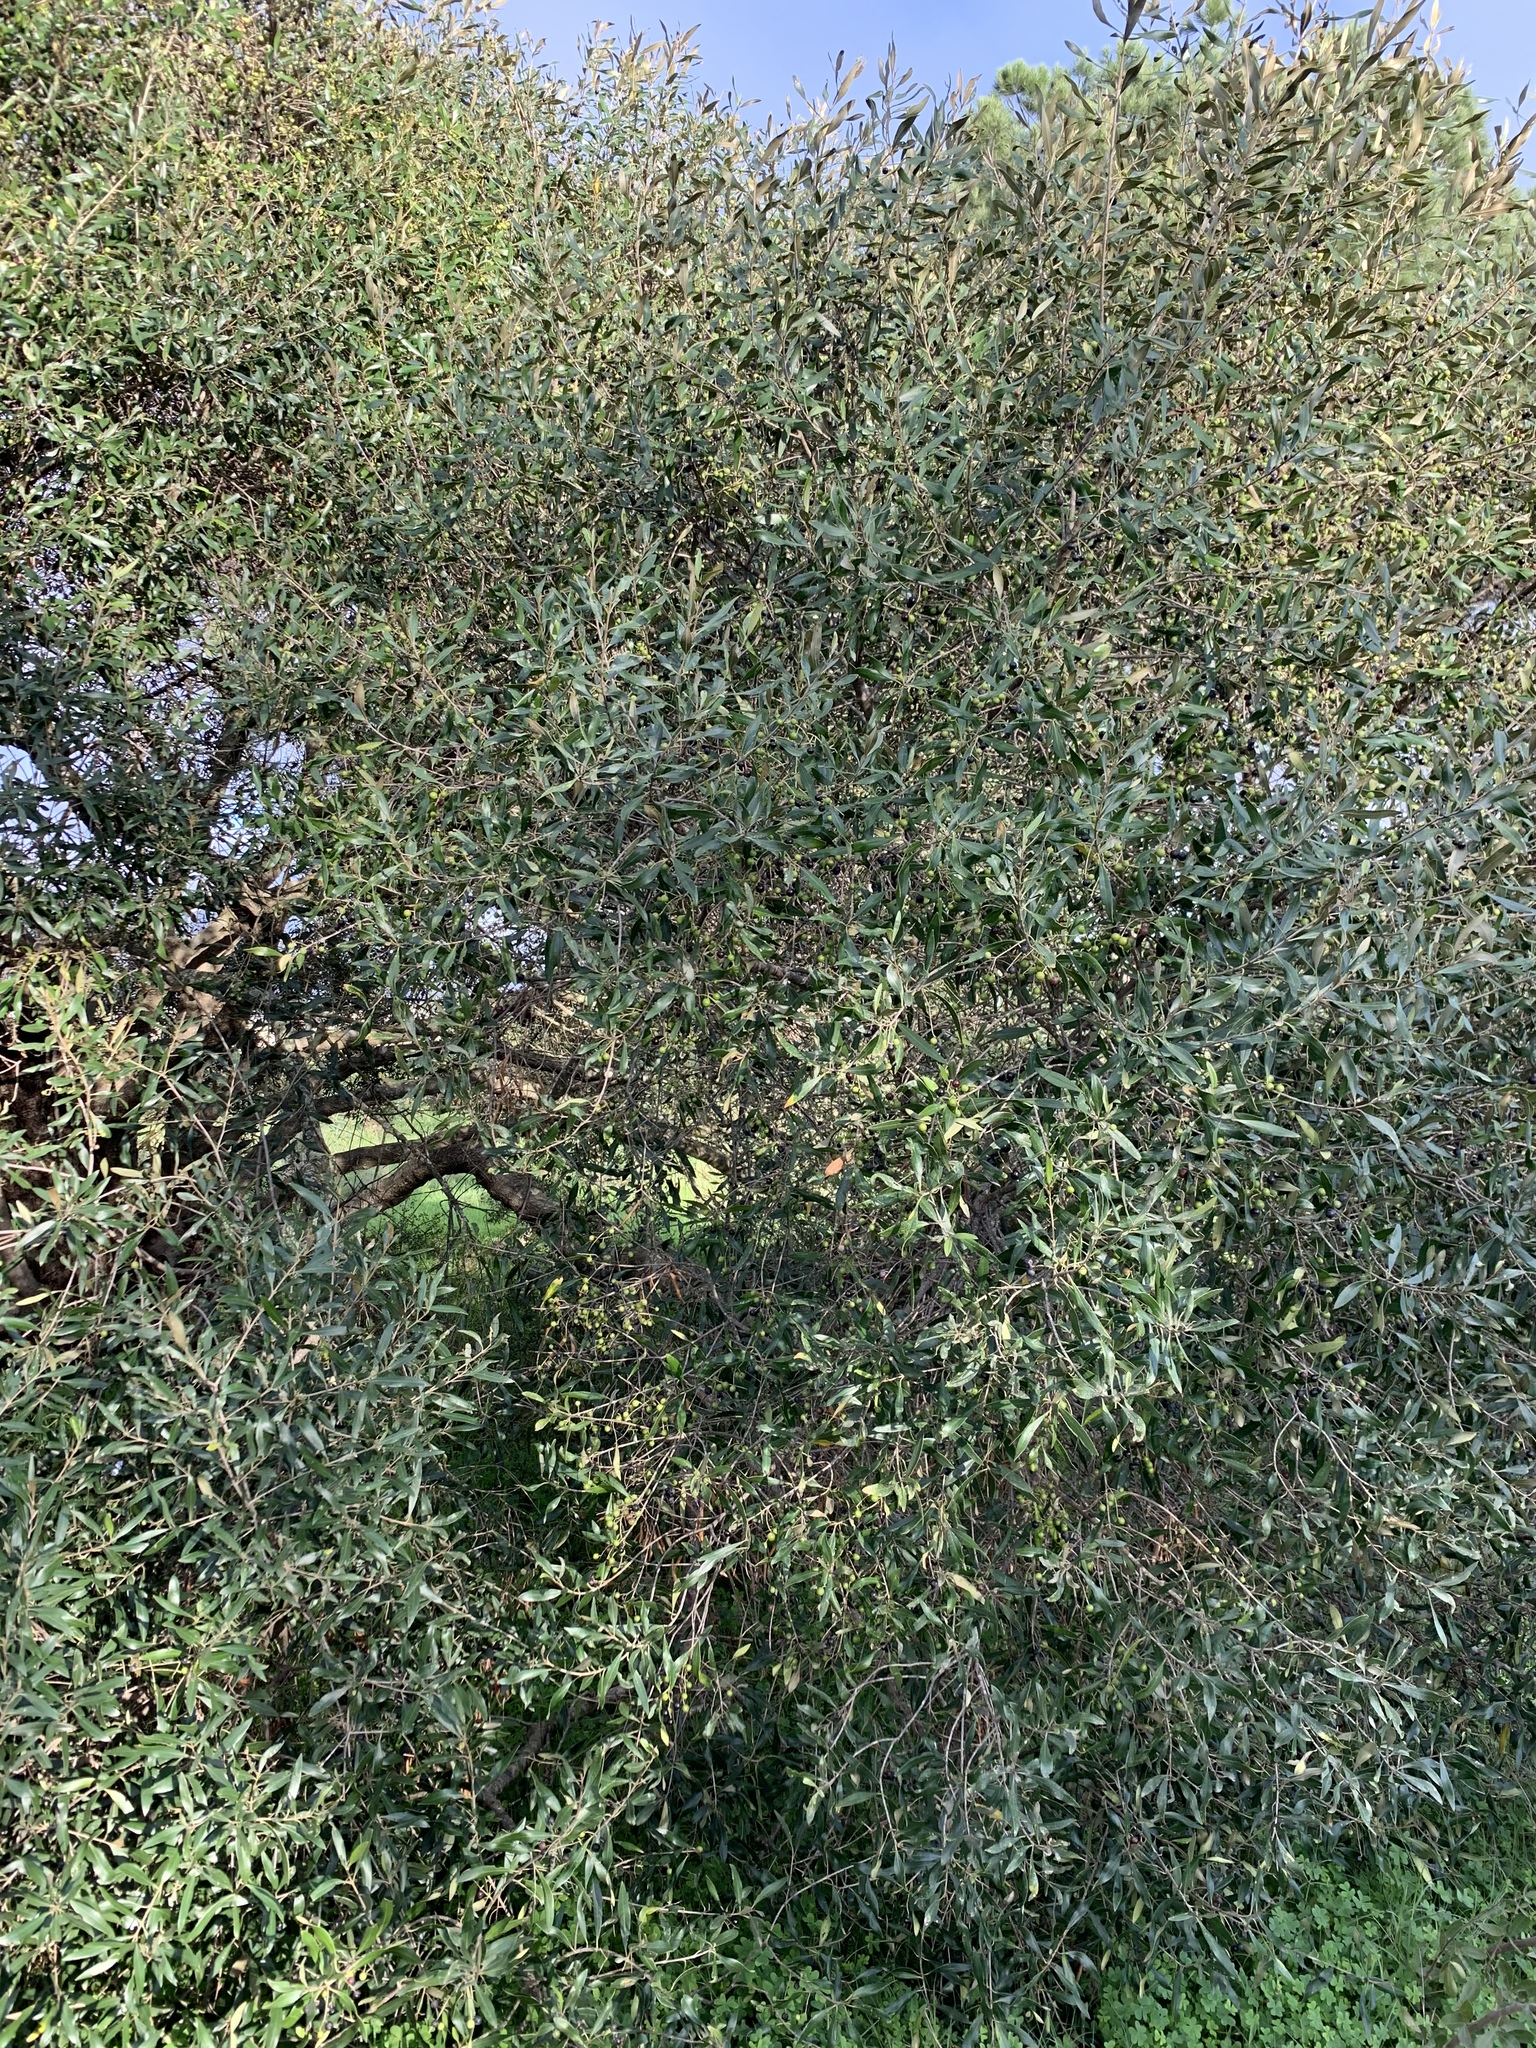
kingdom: Plantae
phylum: Tracheophyta
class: Magnoliopsida
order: Lamiales
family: Oleaceae
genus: Olea
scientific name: Olea europaea
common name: Olive
